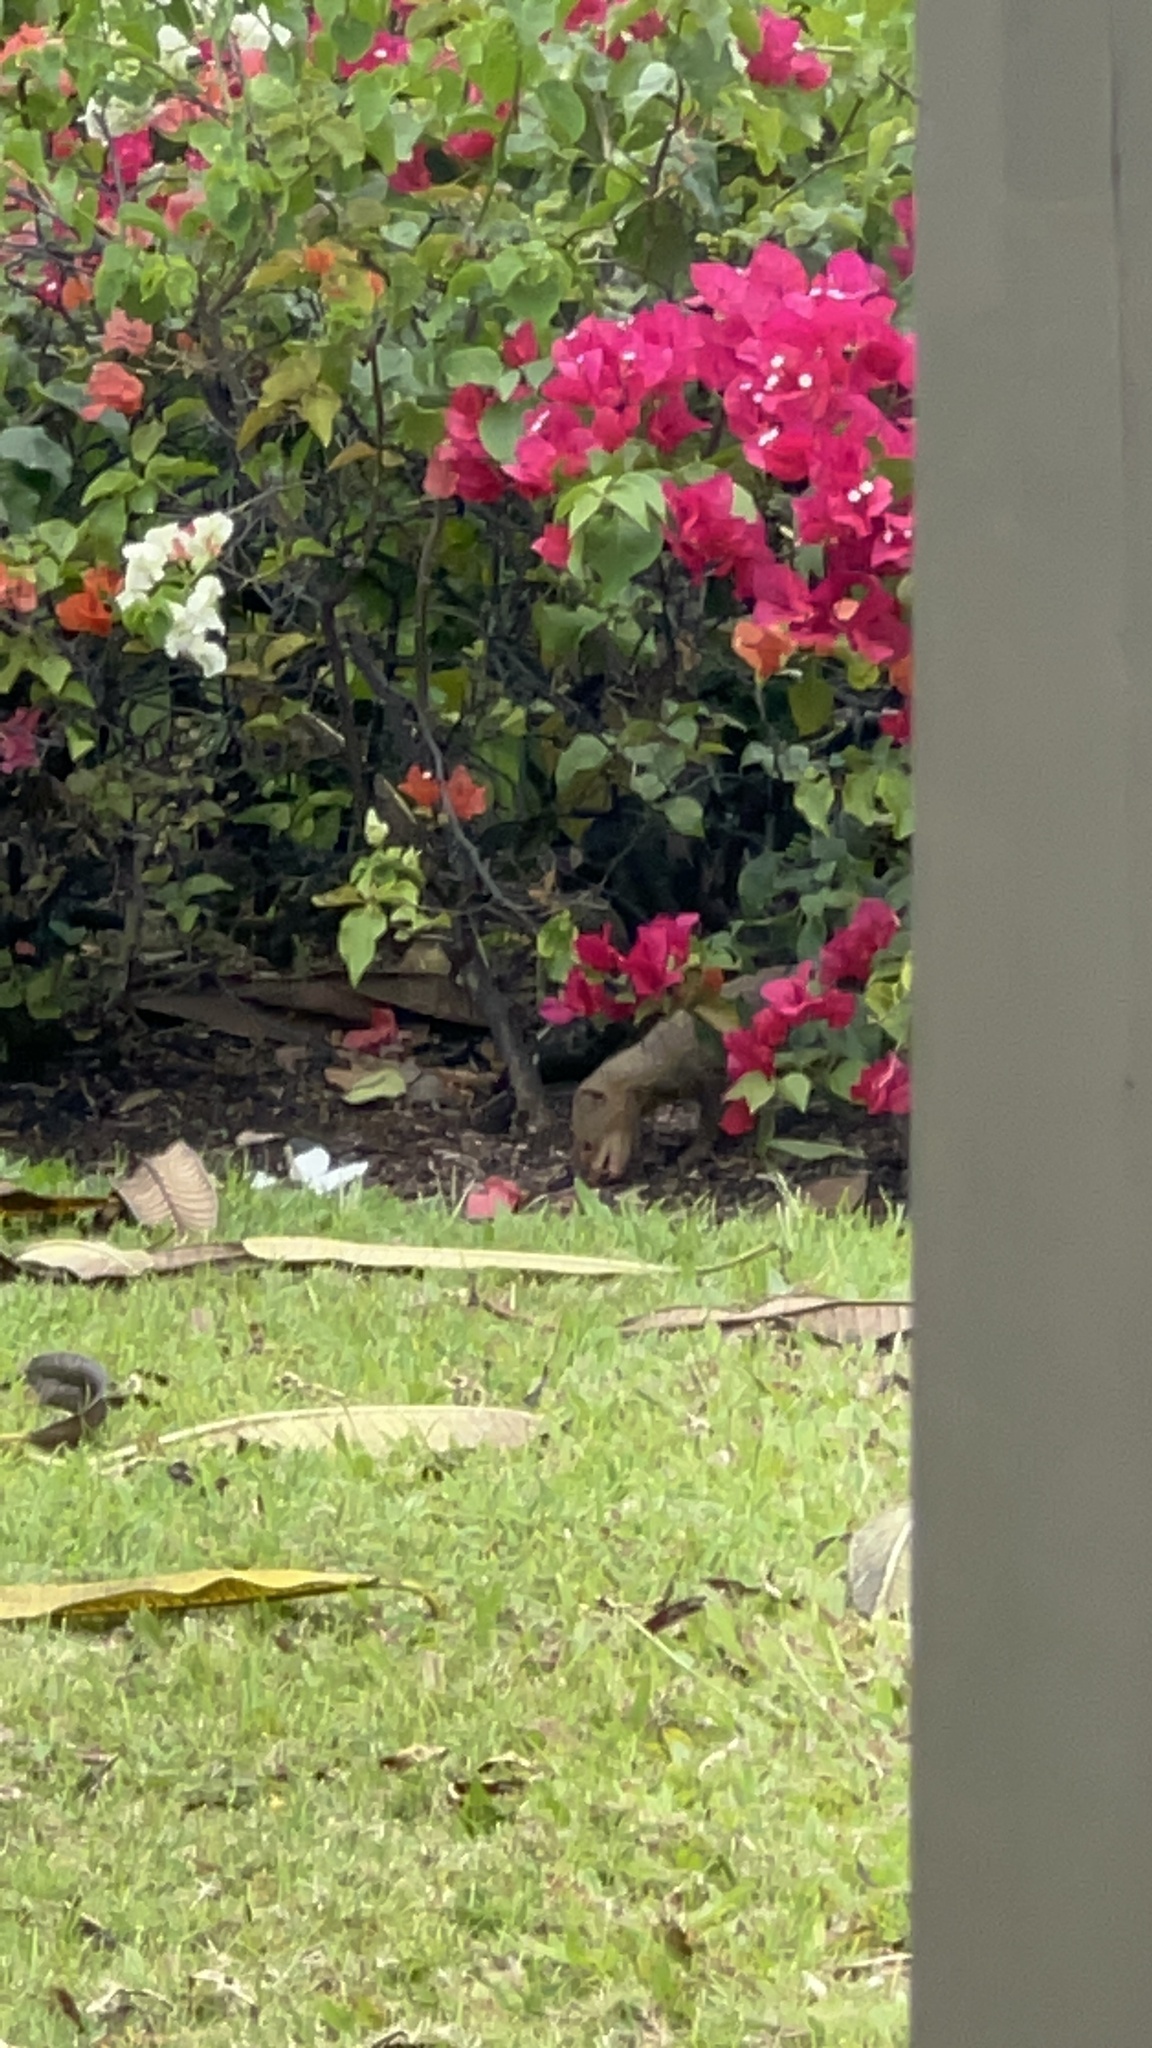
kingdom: Animalia
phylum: Chordata
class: Mammalia
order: Carnivora
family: Herpestidae
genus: Herpestes
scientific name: Herpestes javanicus
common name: Small asian mongoose
